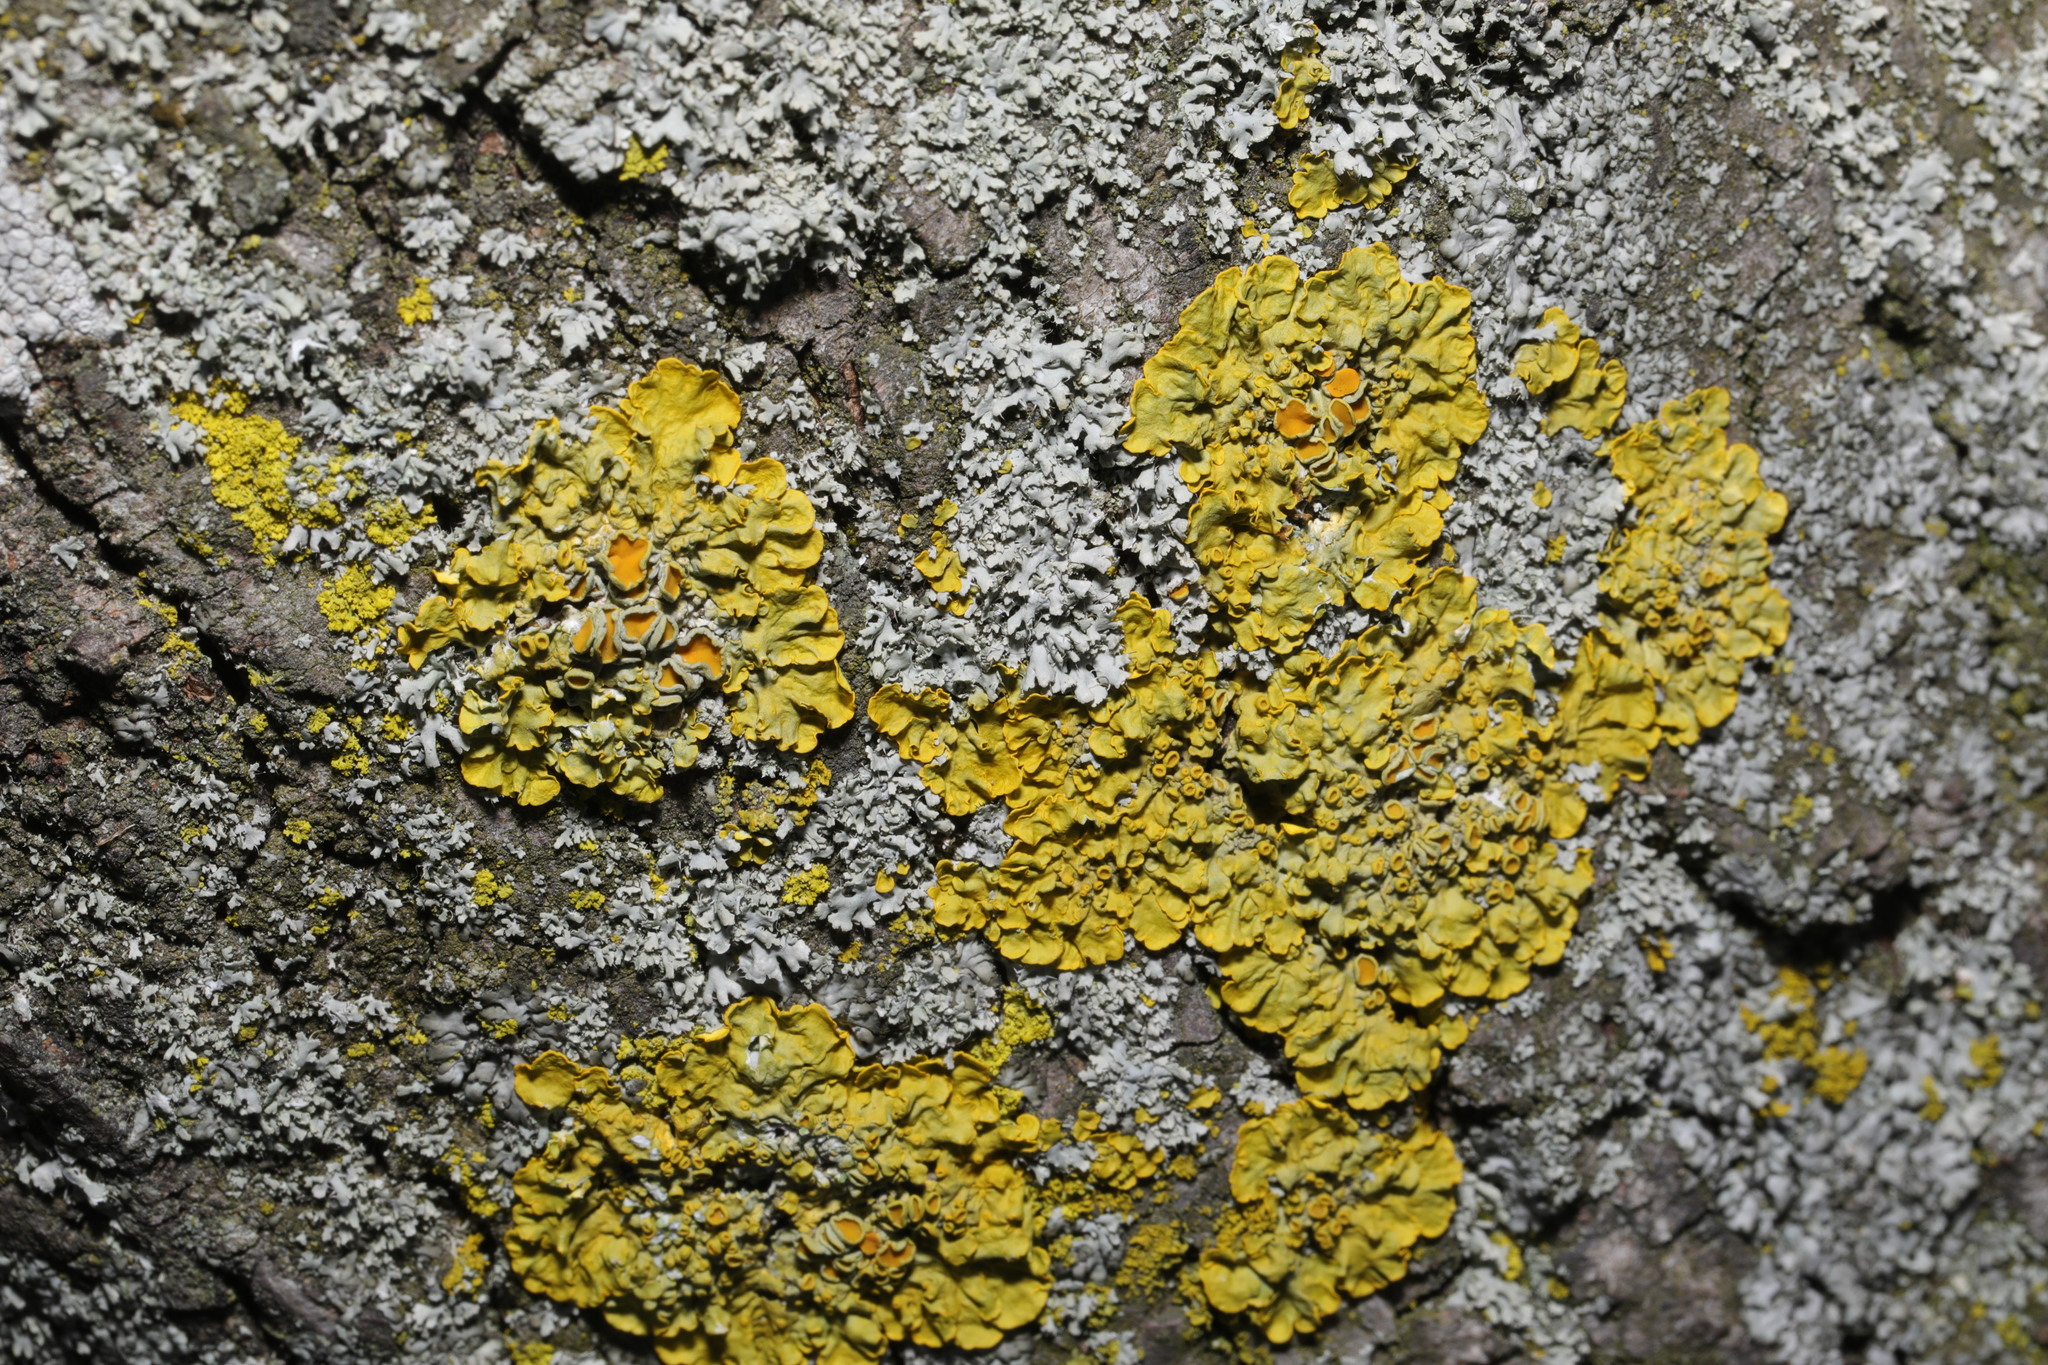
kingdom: Fungi
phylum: Ascomycota
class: Lecanoromycetes
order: Teloschistales
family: Teloschistaceae
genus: Xanthoria
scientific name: Xanthoria parietina
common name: Common orange lichen
